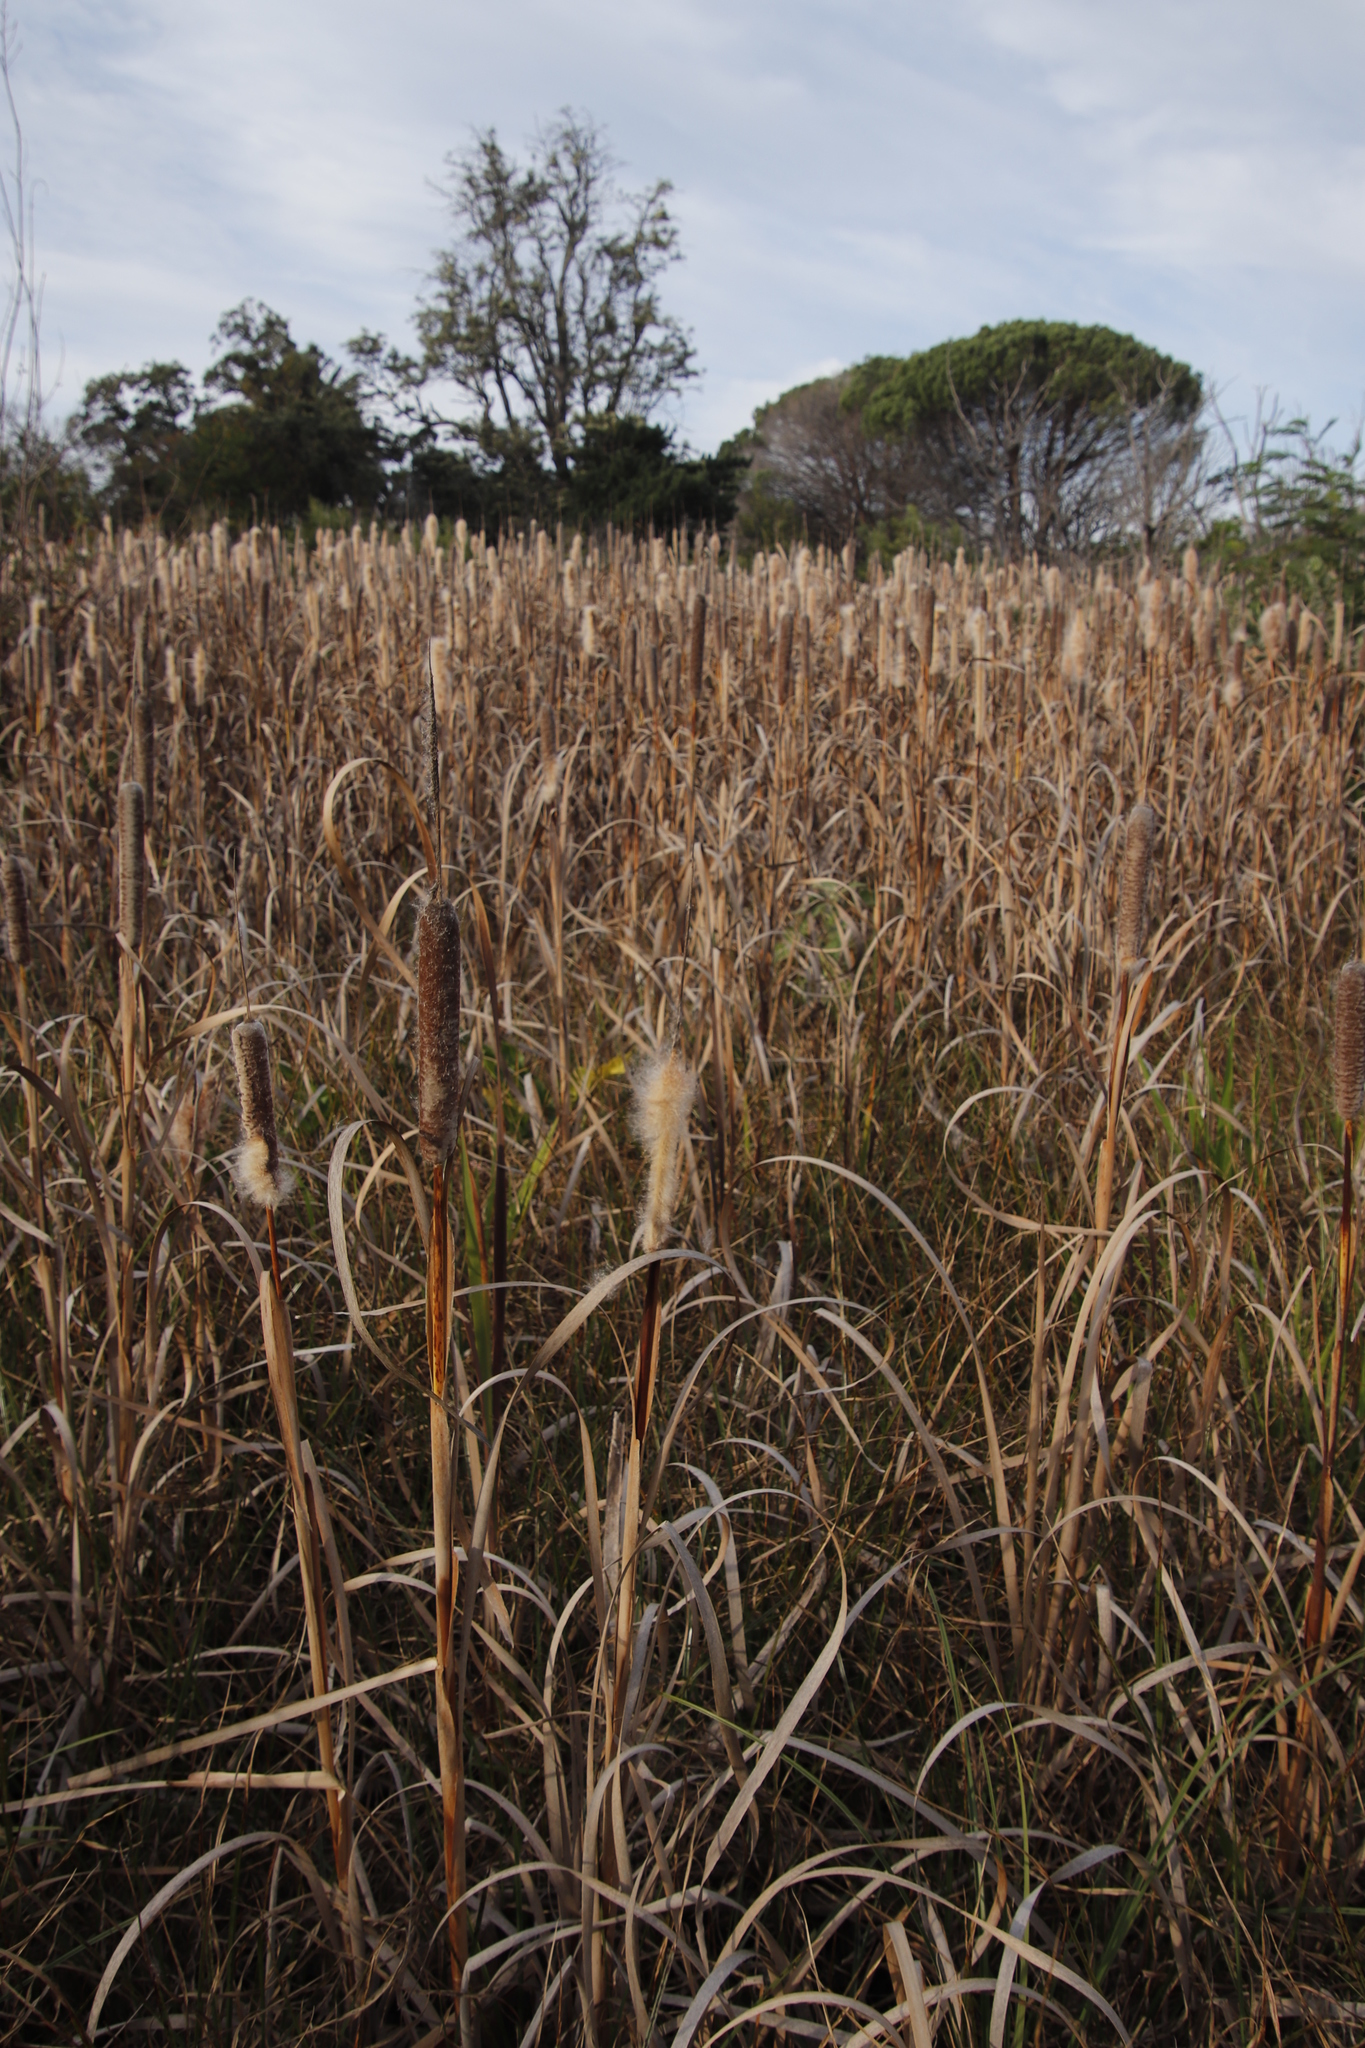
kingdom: Plantae
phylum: Tracheophyta
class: Liliopsida
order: Poales
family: Typhaceae
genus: Typha
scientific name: Typha capensis
